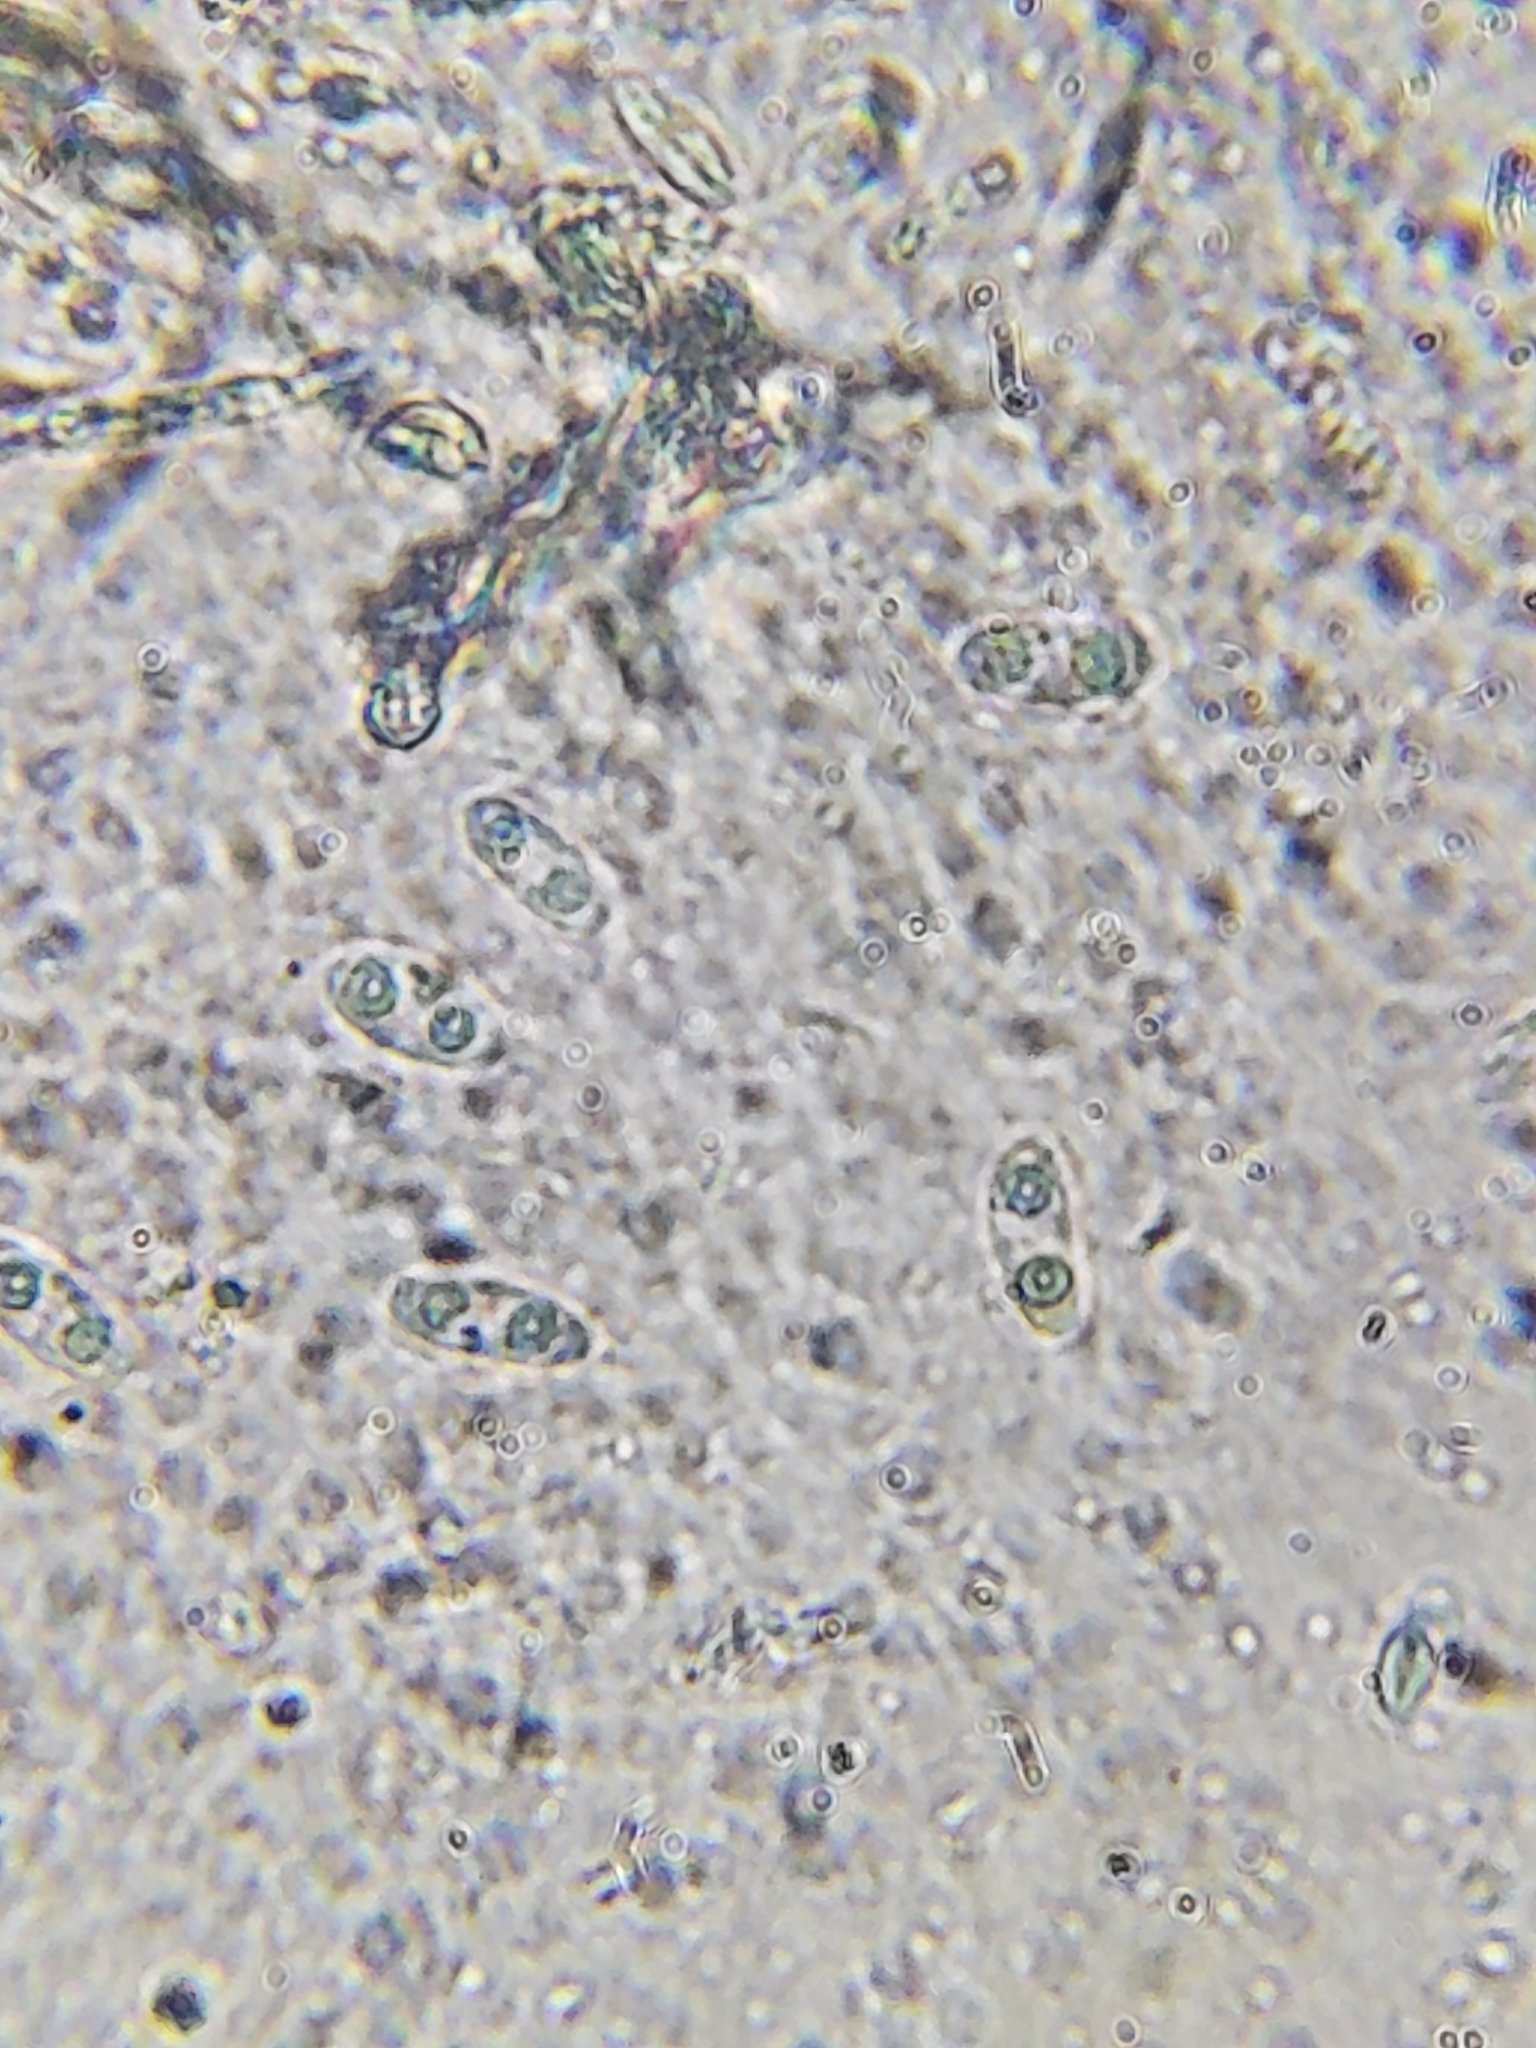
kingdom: Fungi
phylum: Ascomycota
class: Leotiomycetes
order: Helotiales
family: Cenangiaceae
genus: Chlorencoelia
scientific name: Chlorencoelia torta
